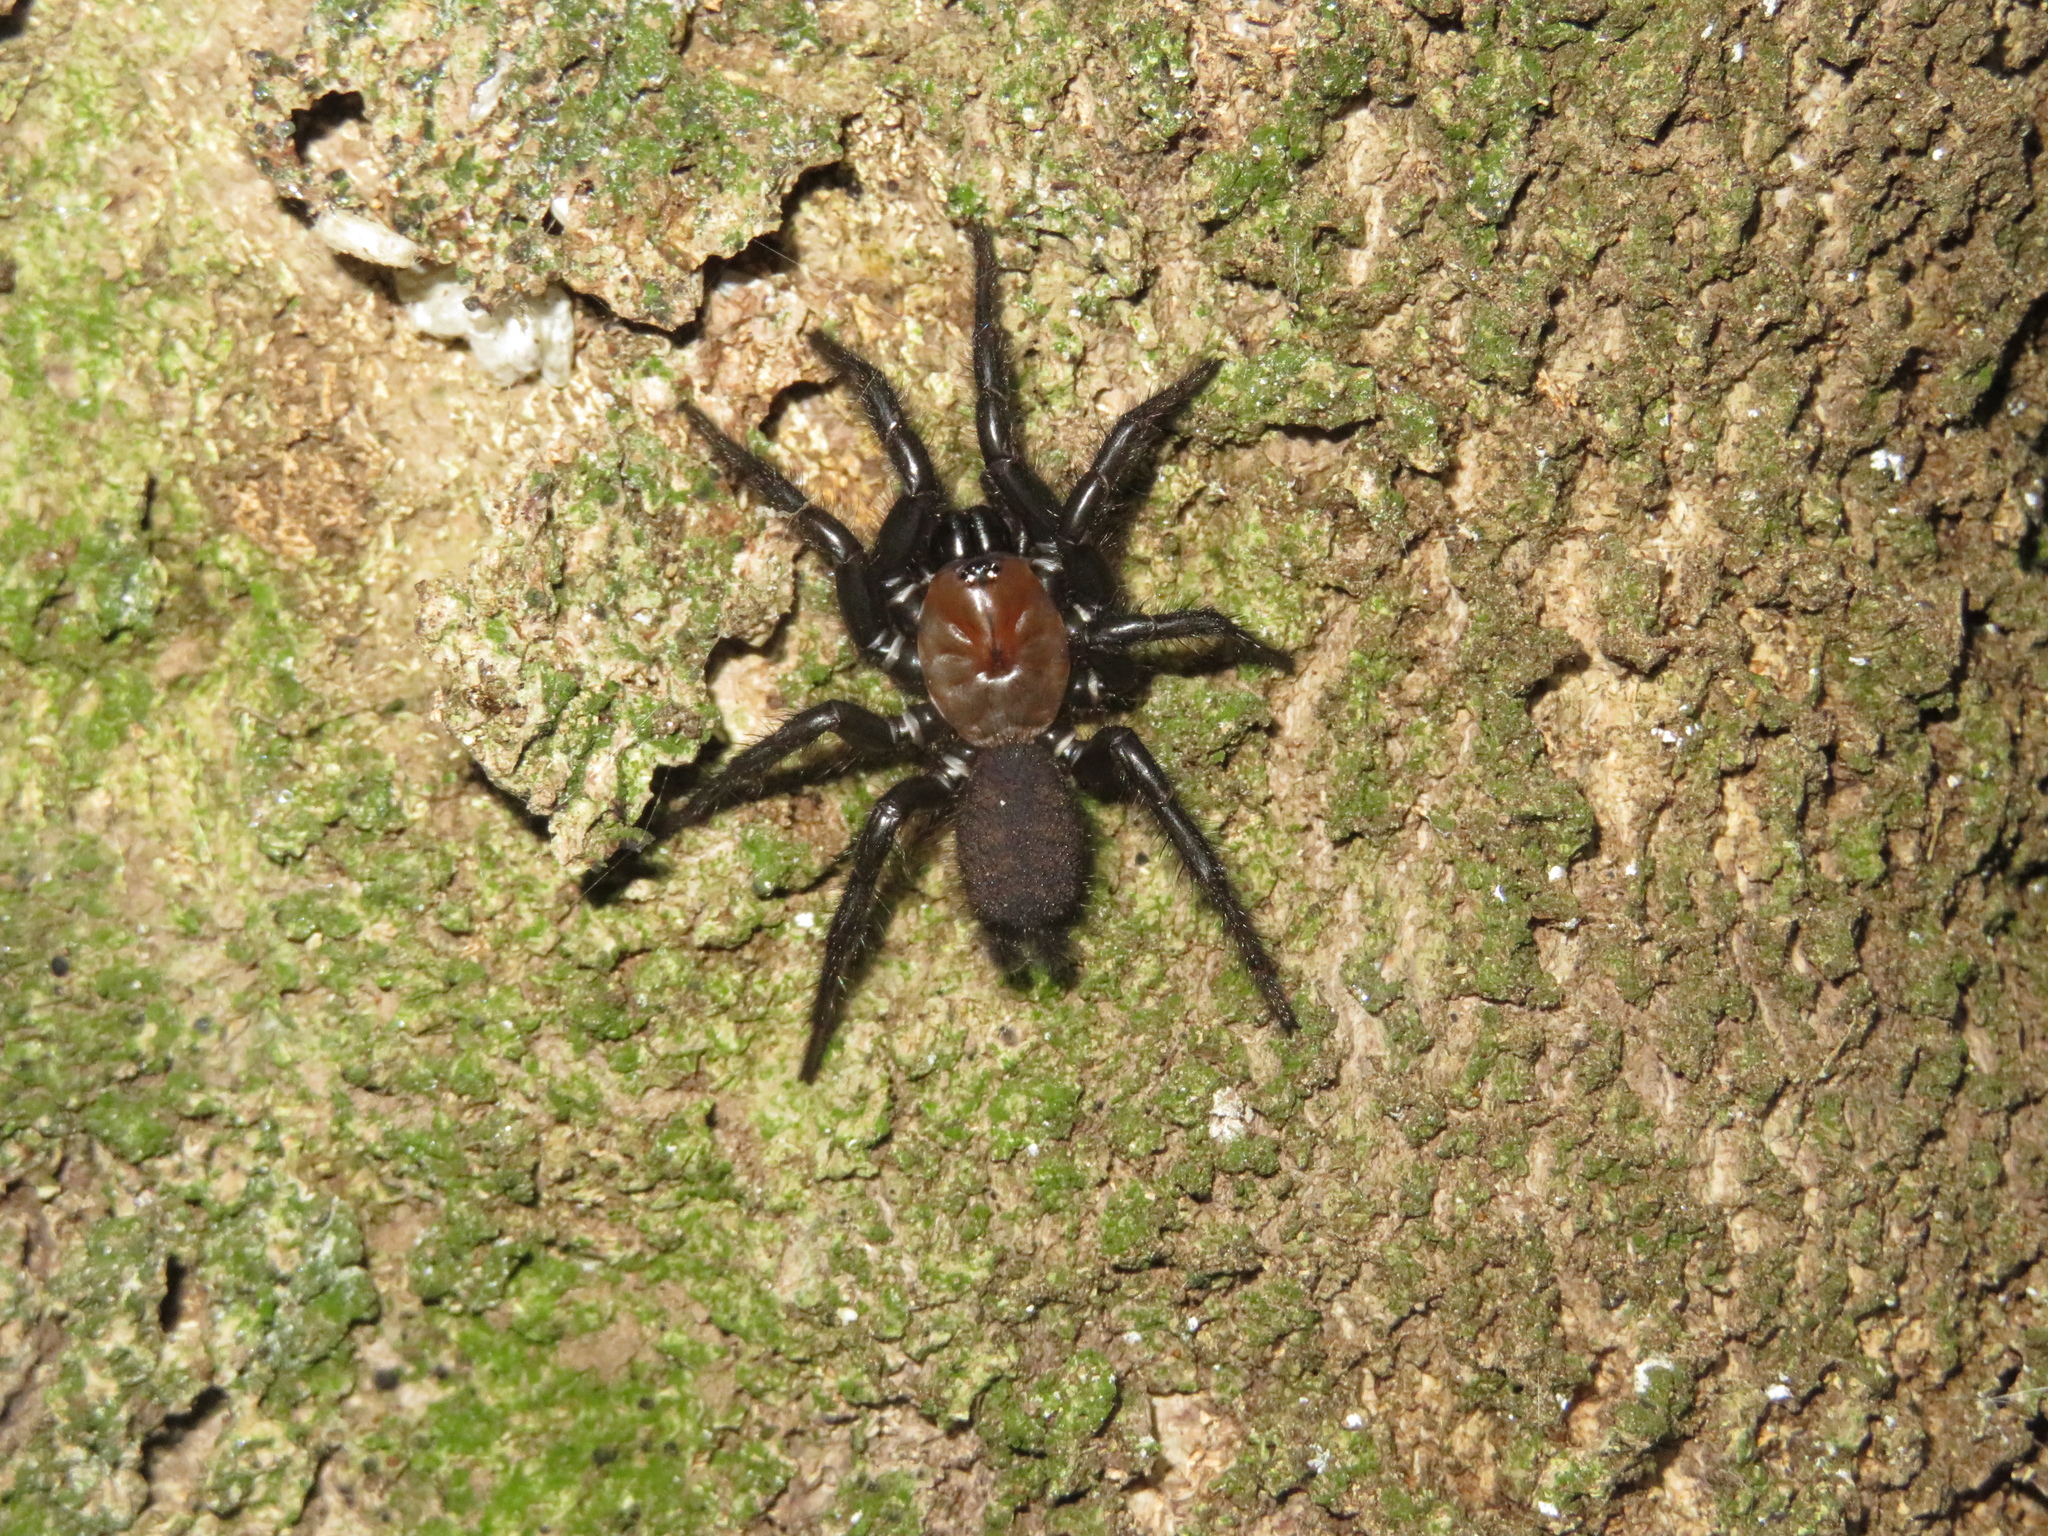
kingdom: Animalia
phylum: Arthropoda
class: Arachnida
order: Araneae
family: Porrhothelidae
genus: Porrhothele
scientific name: Porrhothele antipodiana
